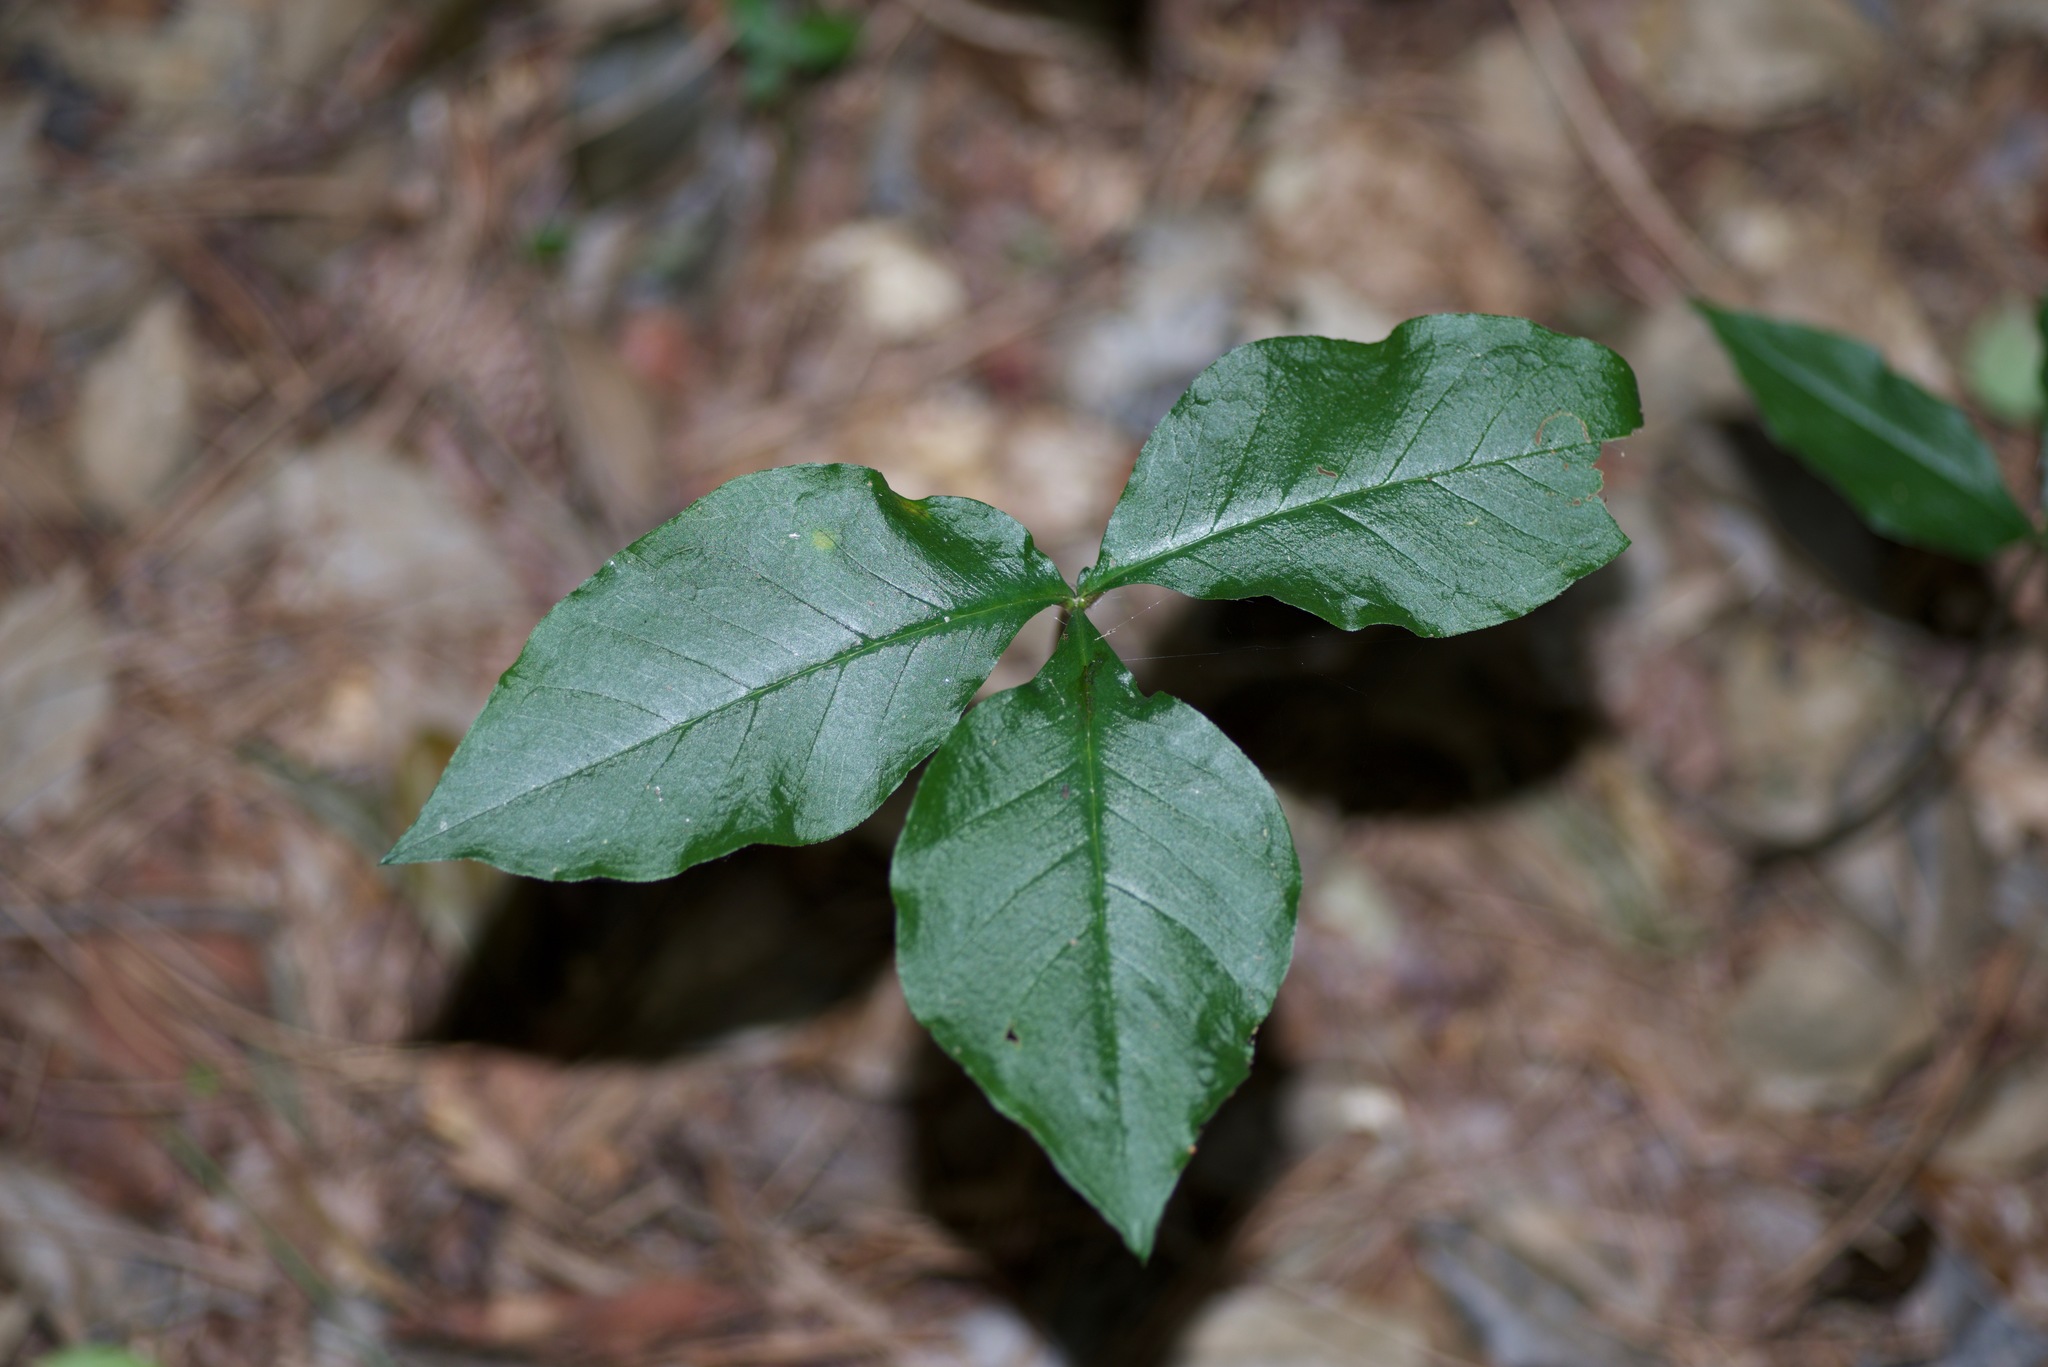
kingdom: Plantae
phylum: Tracheophyta
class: Liliopsida
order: Alismatales
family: Araceae
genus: Arisaema
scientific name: Arisaema triphyllum
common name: Jack-in-the-pulpit
